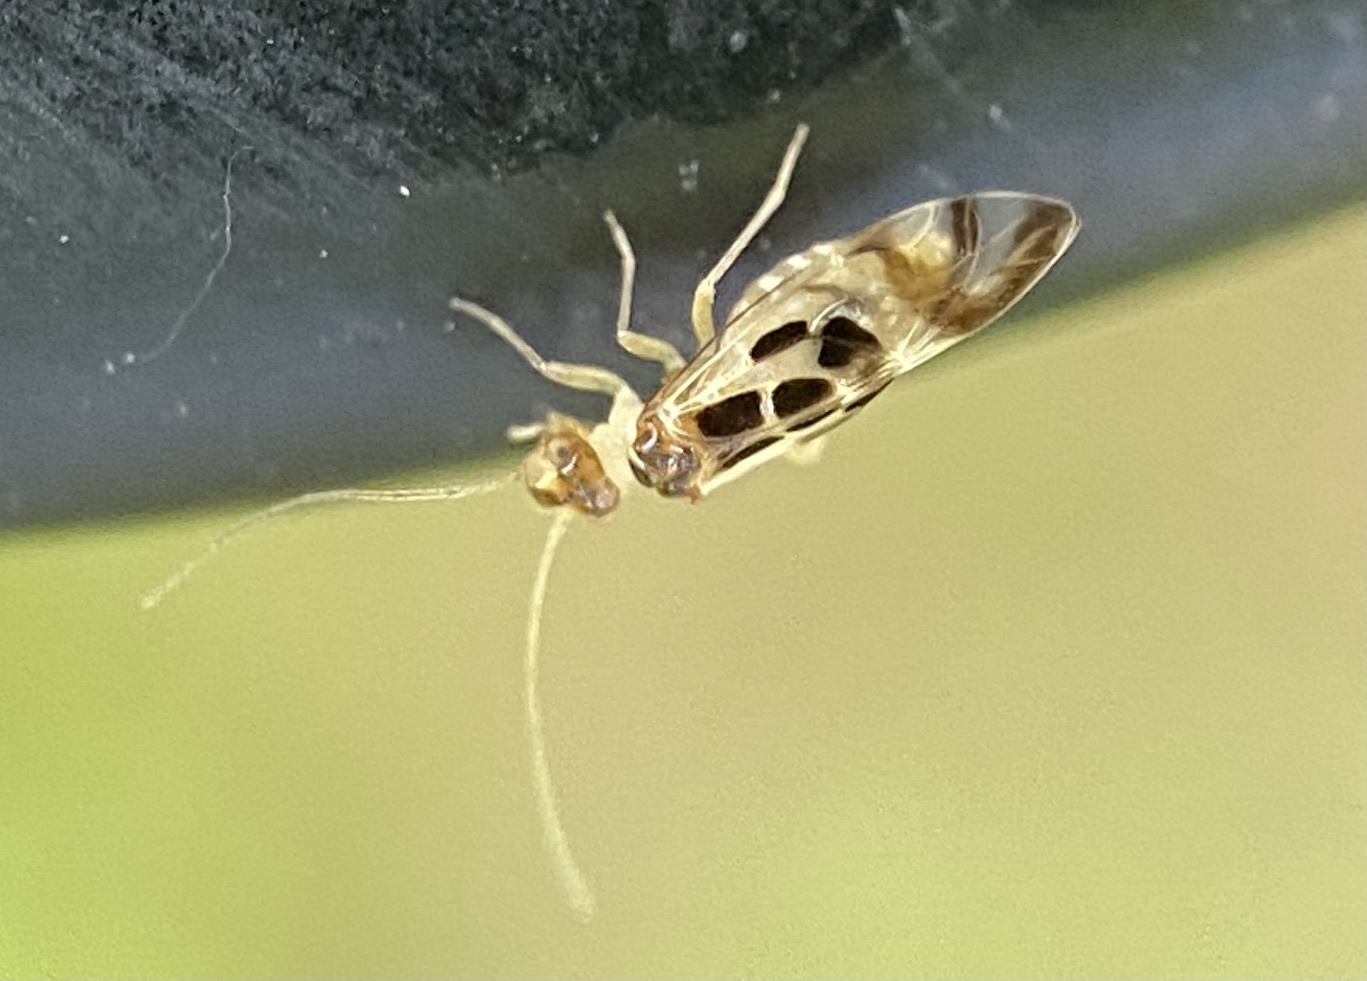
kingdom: Animalia
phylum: Arthropoda
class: Insecta
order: Psocodea
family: Stenopsocidae
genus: Graphopsocus
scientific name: Graphopsocus cruciatus
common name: Lizard bark louse
